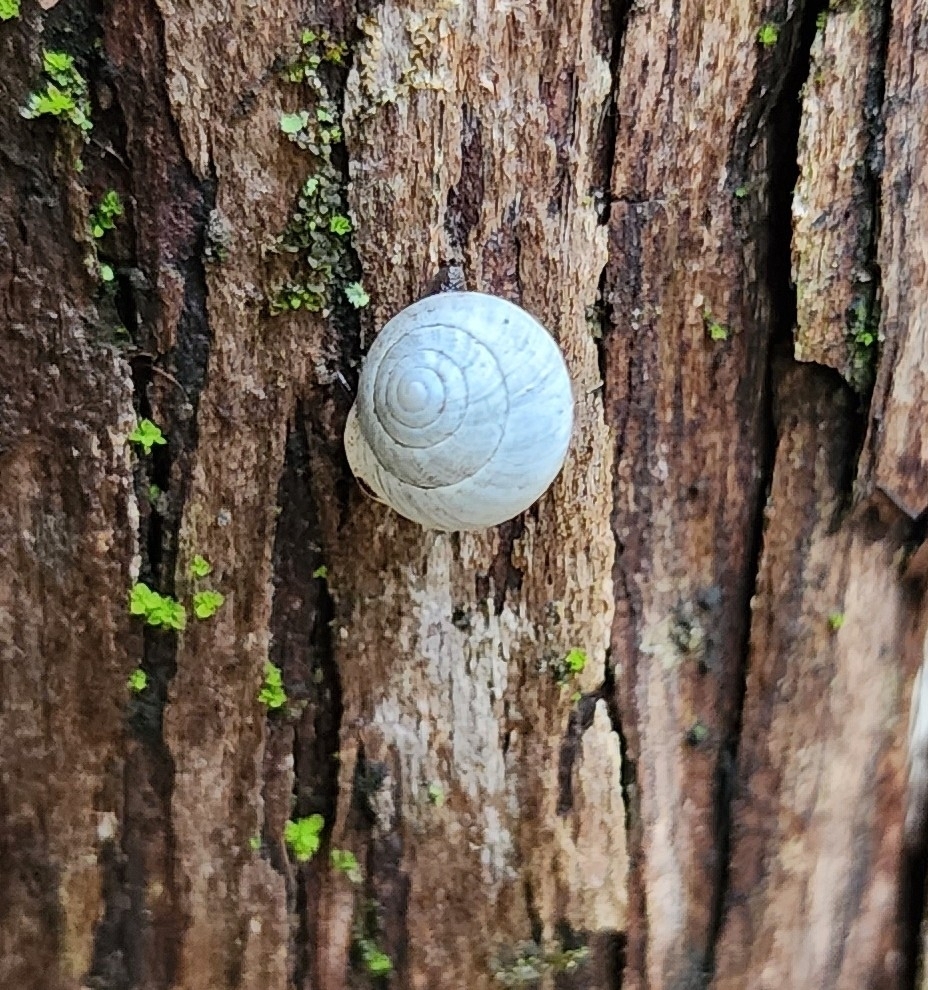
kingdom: Animalia
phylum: Mollusca
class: Gastropoda
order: Cycloneritida
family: Helicinidae
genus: Helicina
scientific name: Helicina orbiculata
